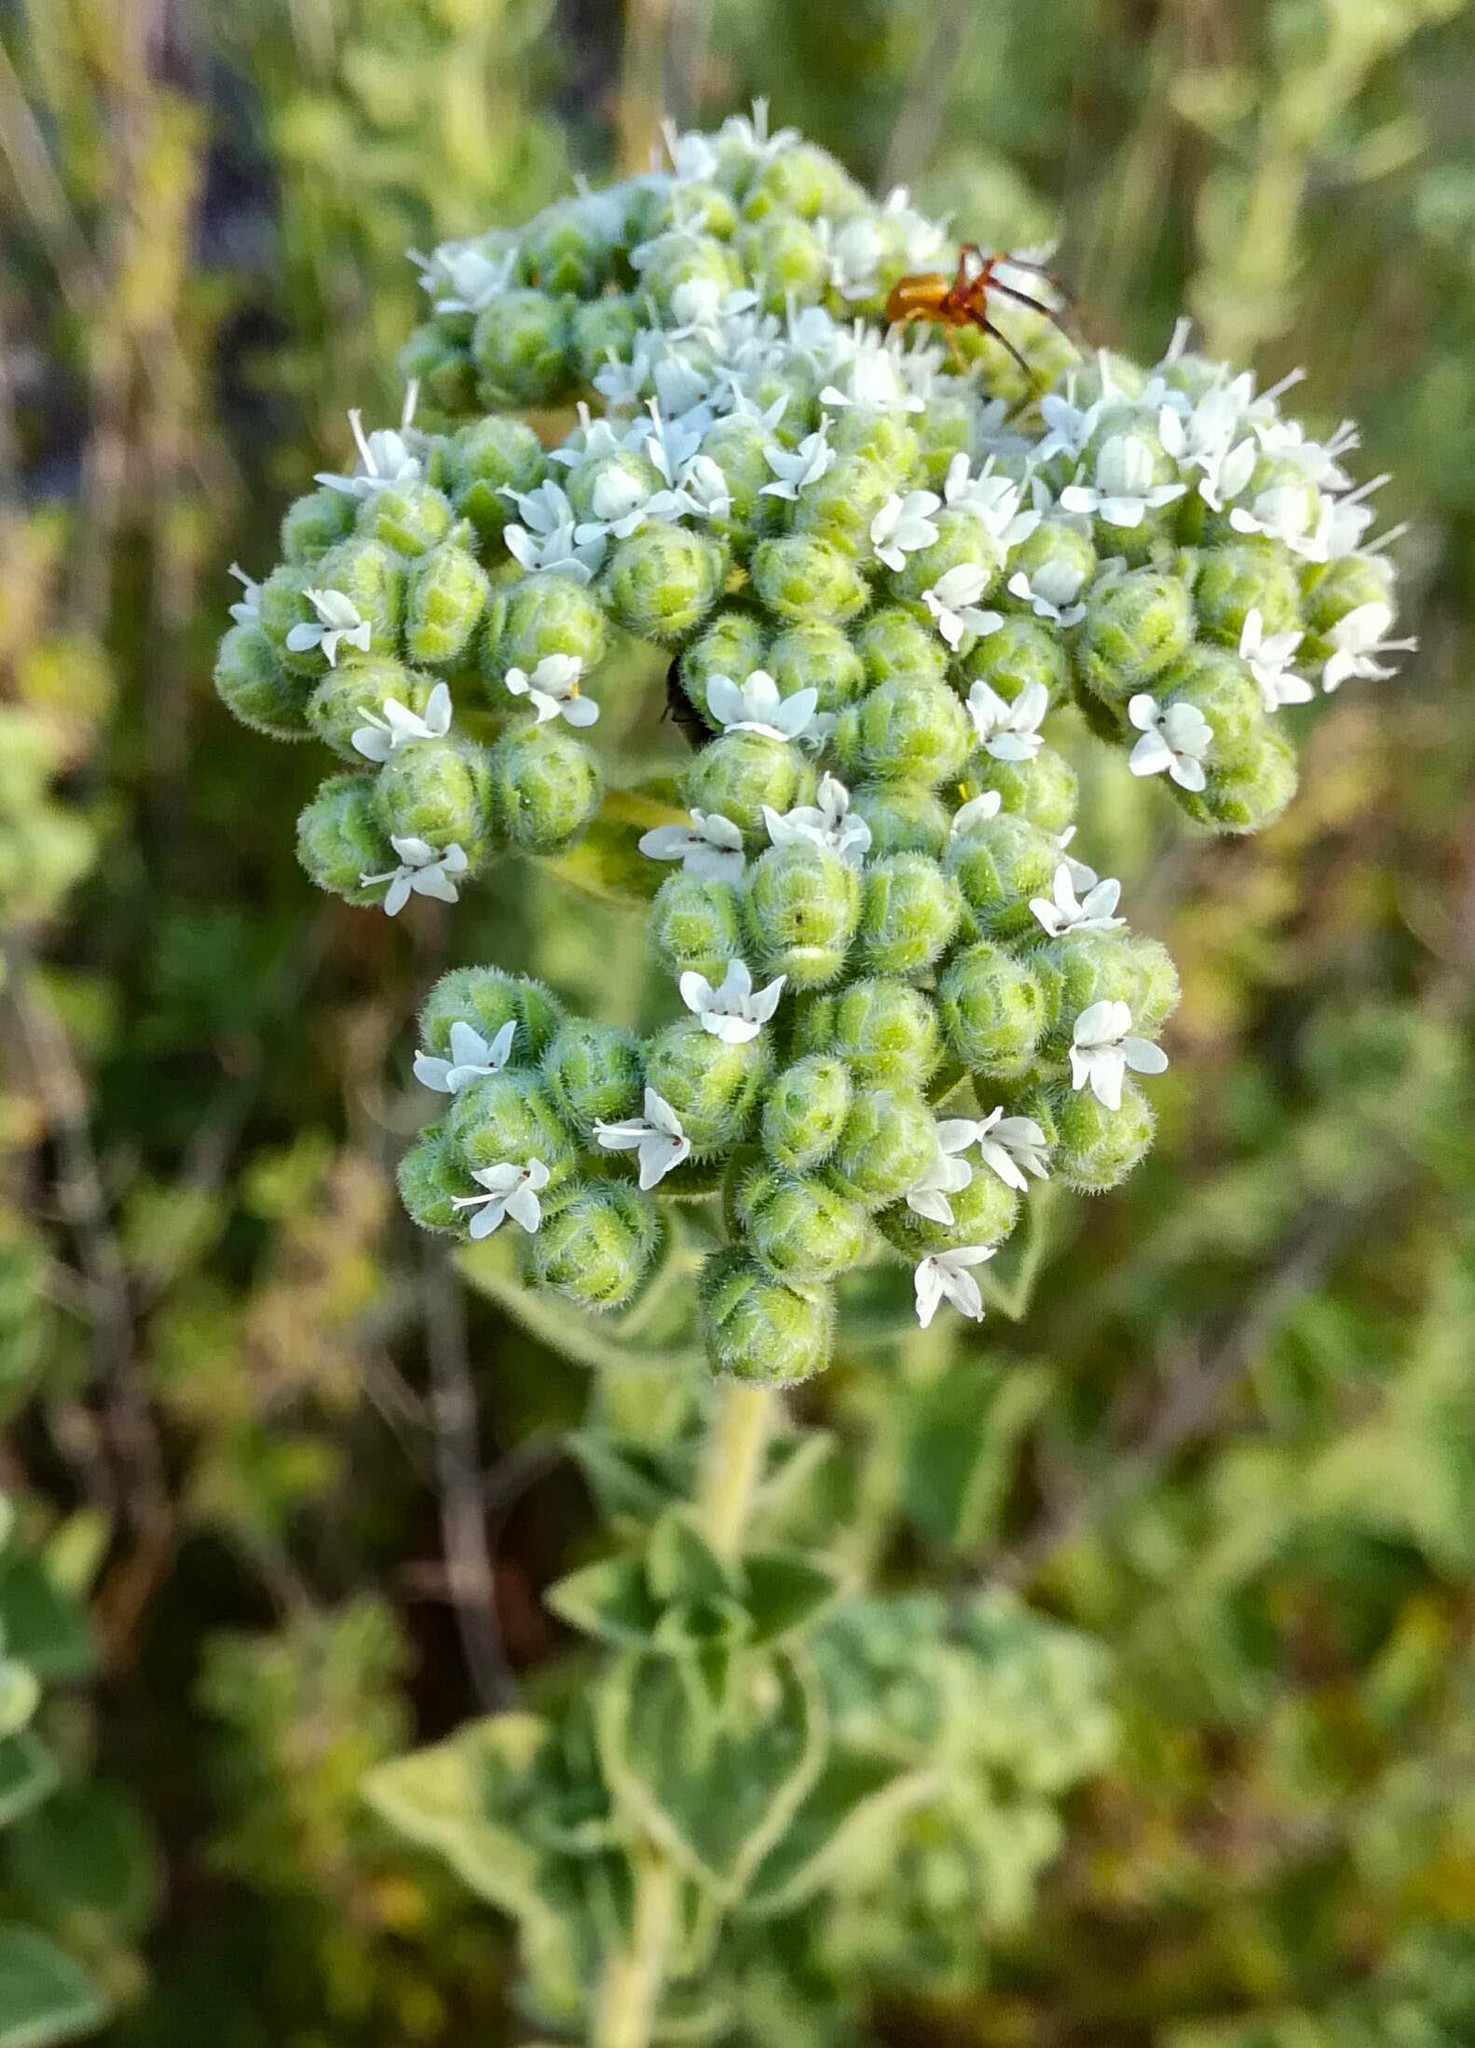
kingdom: Plantae
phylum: Tracheophyta
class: Magnoliopsida
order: Lamiales
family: Lamiaceae
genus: Origanum
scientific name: Origanum onites
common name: Turkish oregano
